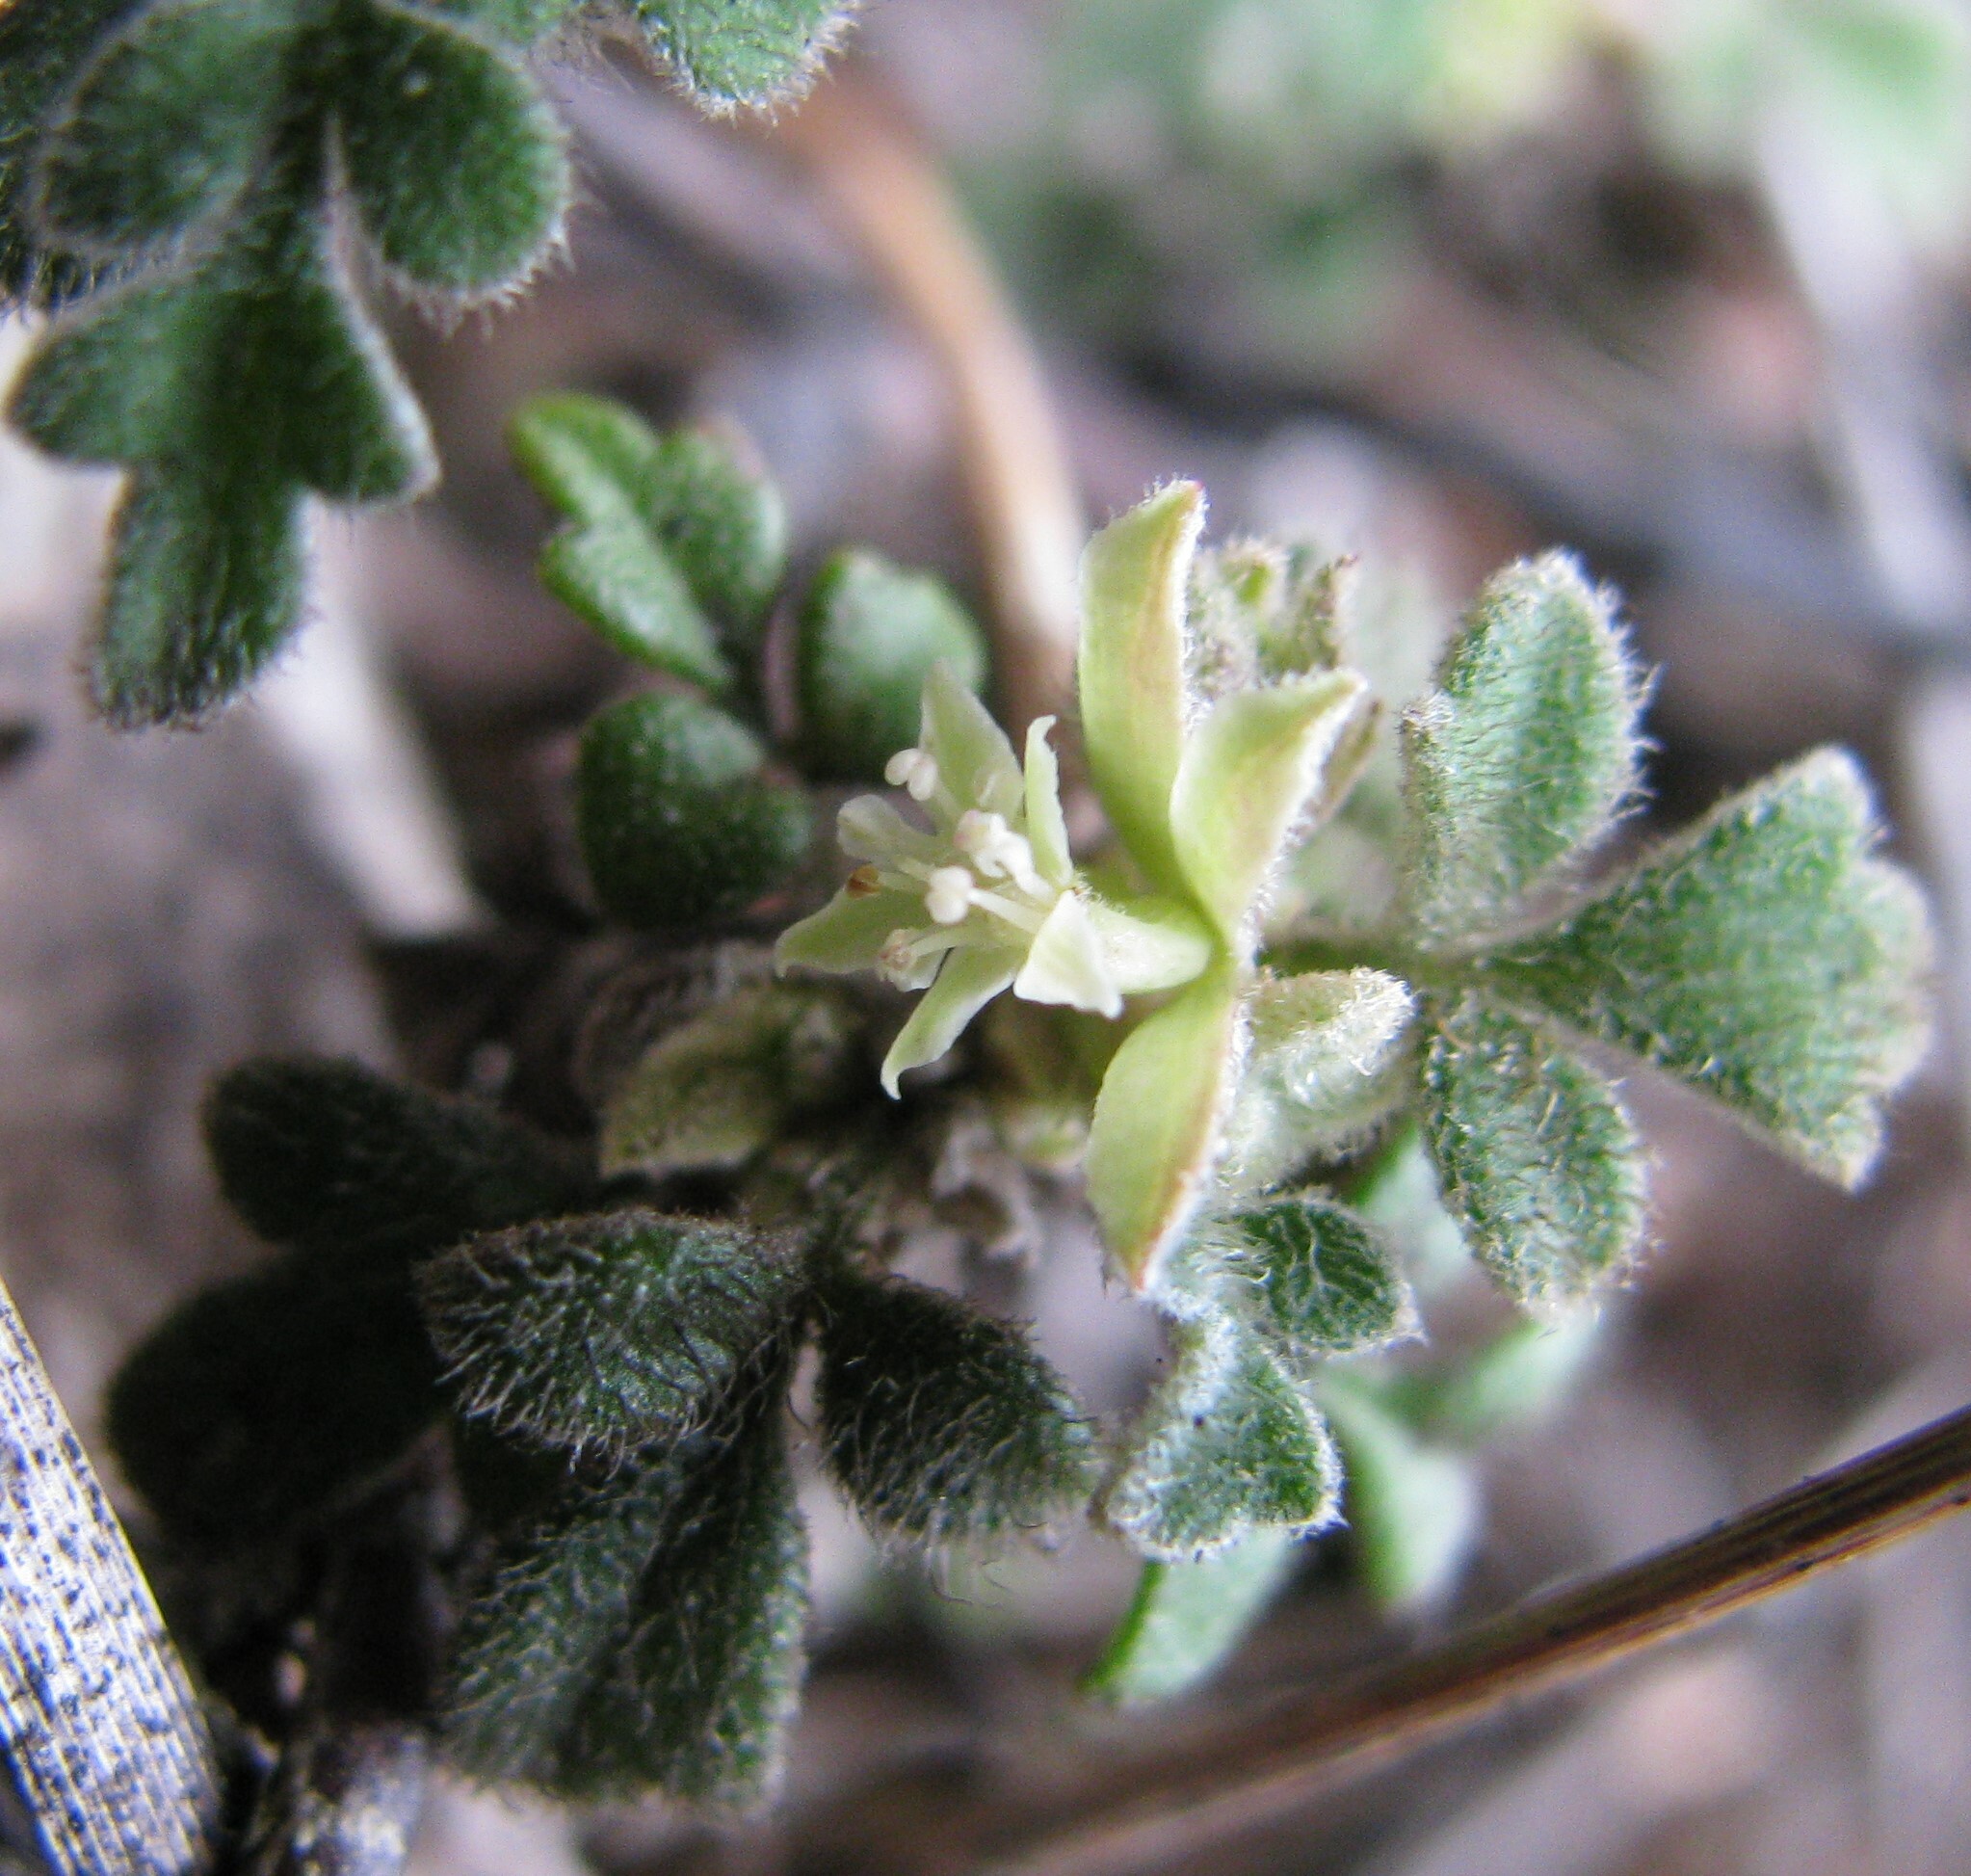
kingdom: Plantae
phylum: Tracheophyta
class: Magnoliopsida
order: Apiales
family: Apiaceae
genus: Xanthosia
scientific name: Xanthosia pilosa
